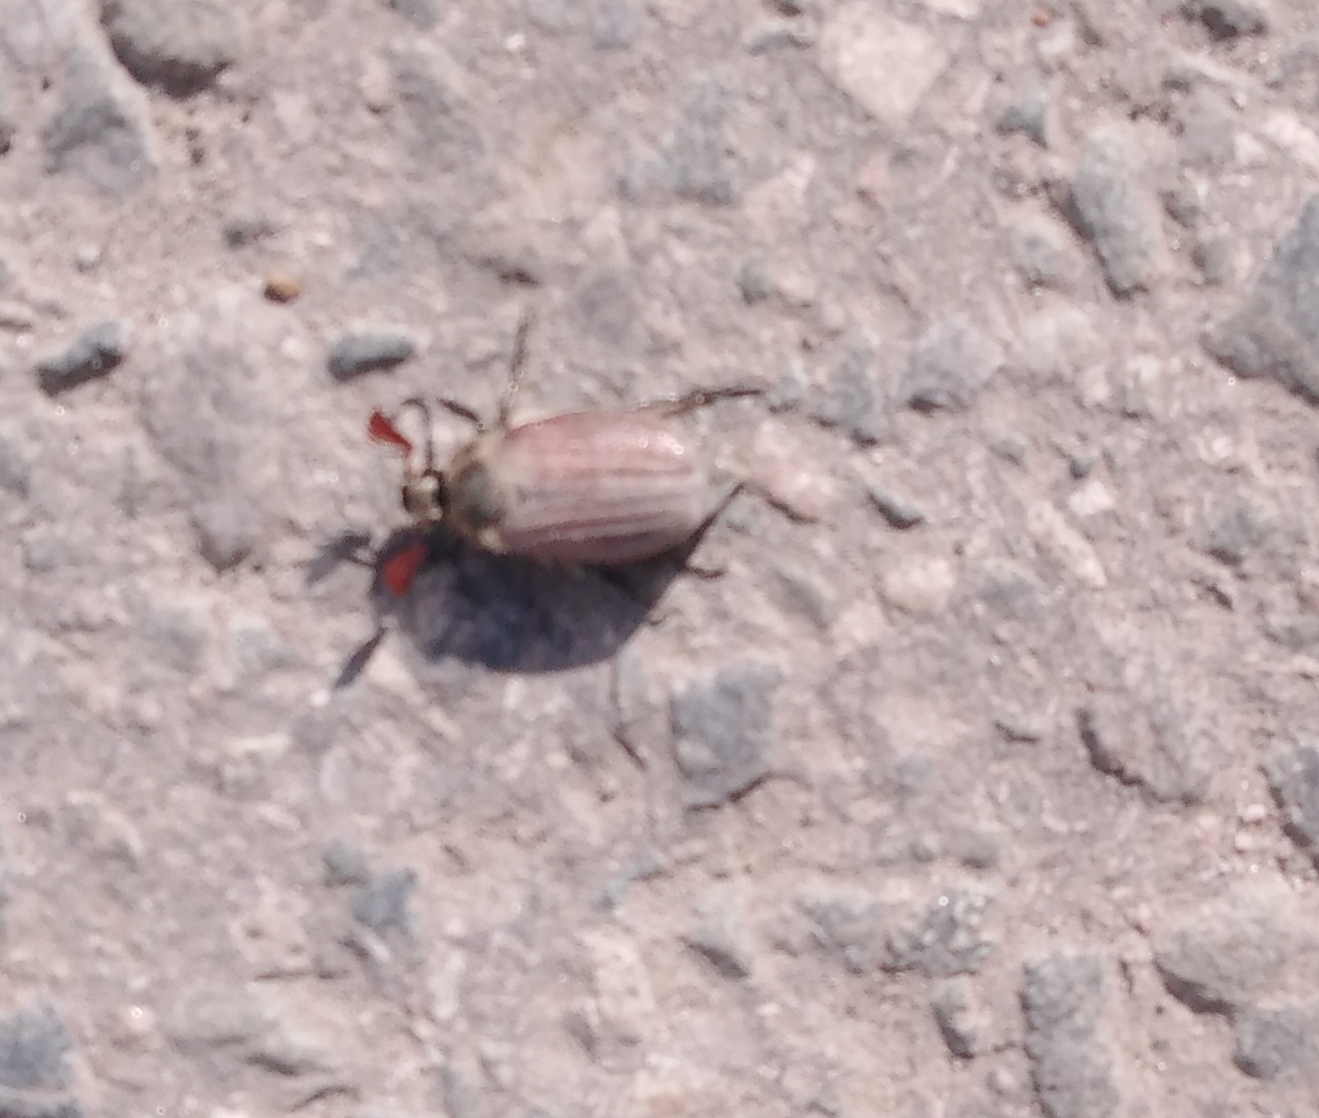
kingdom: Animalia
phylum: Arthropoda
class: Insecta
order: Coleoptera
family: Scarabaeidae
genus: Melolontha
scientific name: Melolontha hippocastani
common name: Chestnut cockchafer
